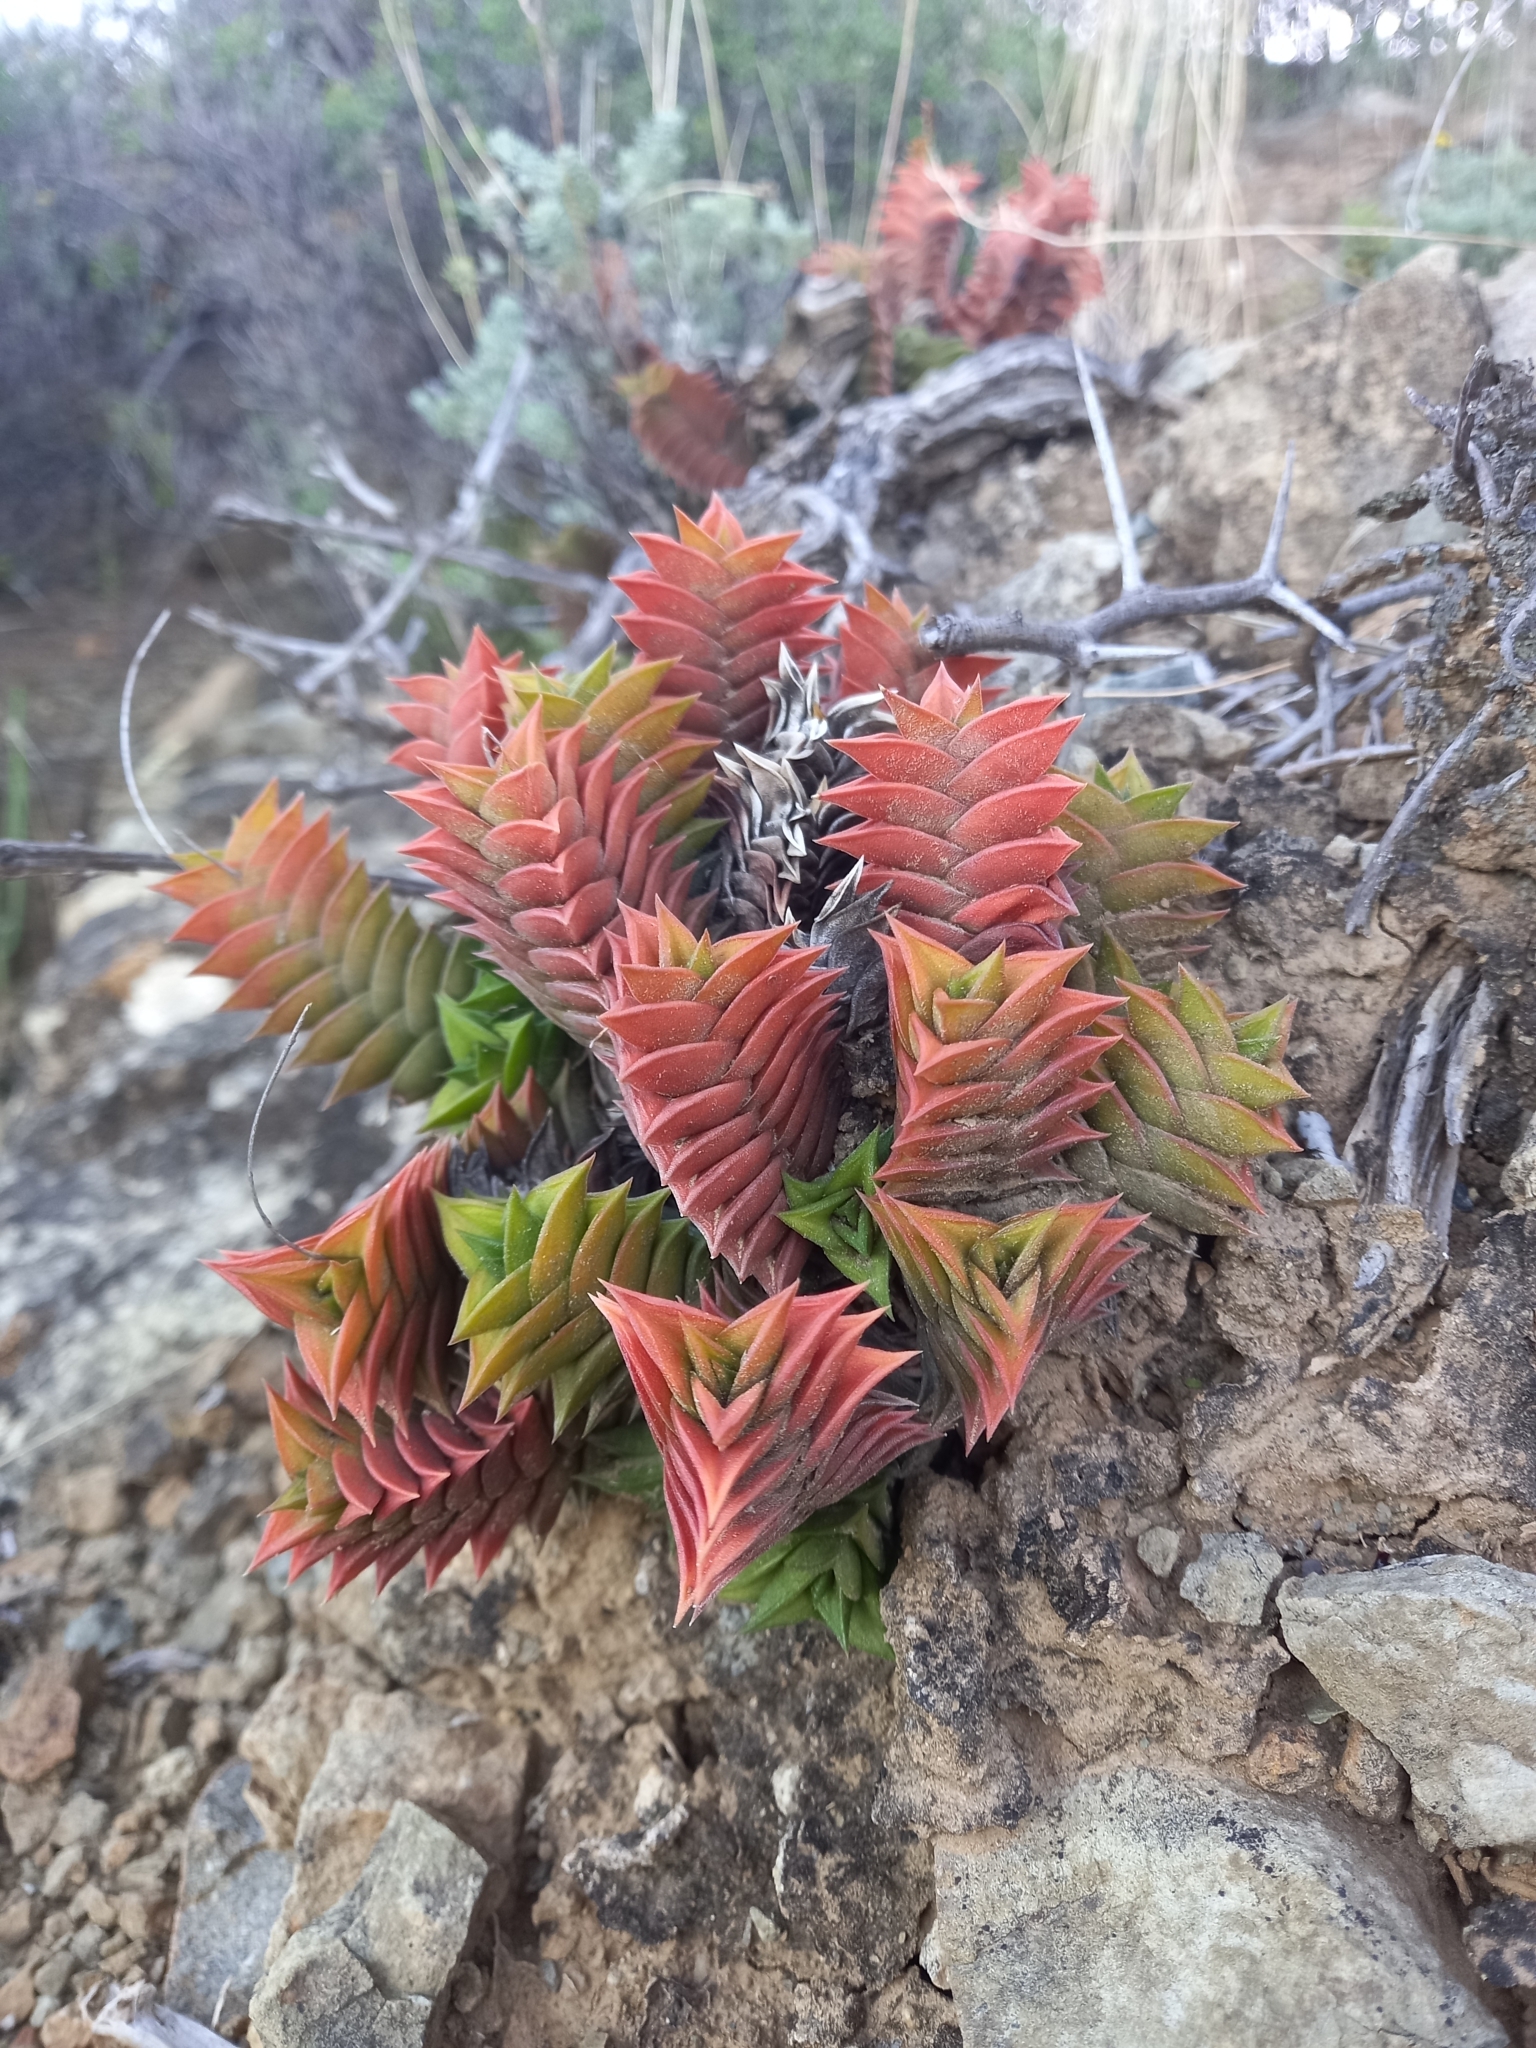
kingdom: Plantae
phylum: Tracheophyta
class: Liliopsida
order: Asparagales
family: Asphodelaceae
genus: Haworthiopsis
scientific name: Haworthiopsis viscosa
